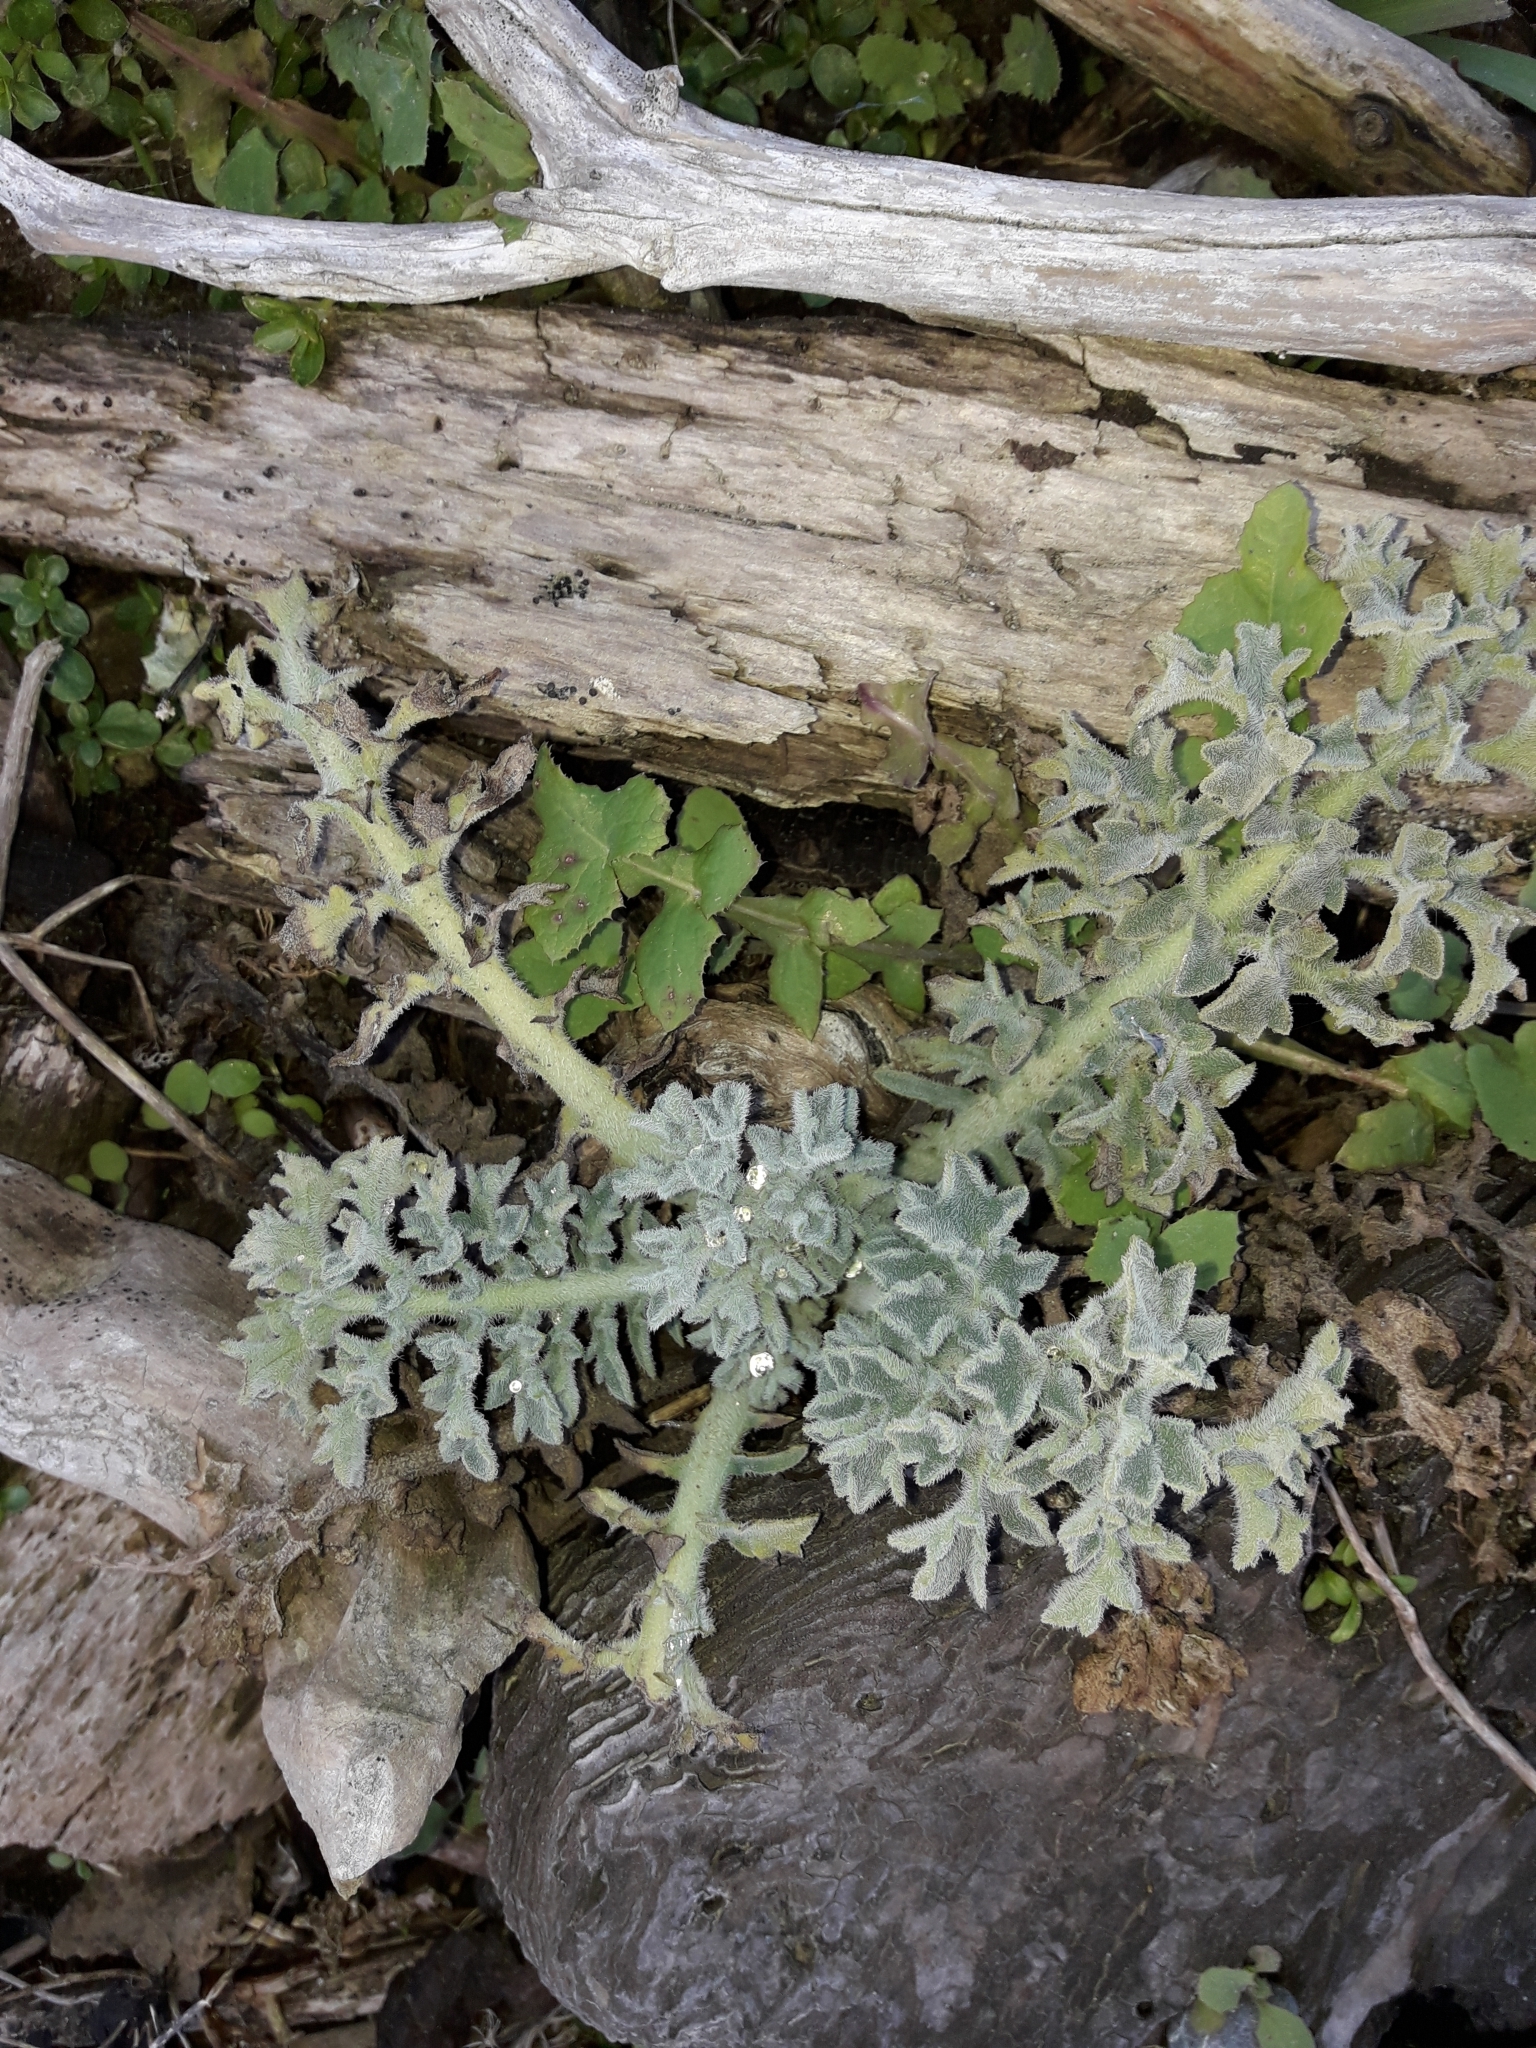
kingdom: Plantae
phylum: Tracheophyta
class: Magnoliopsida
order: Ranunculales
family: Papaveraceae
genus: Glaucium
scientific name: Glaucium flavum
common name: Yellow horned-poppy
